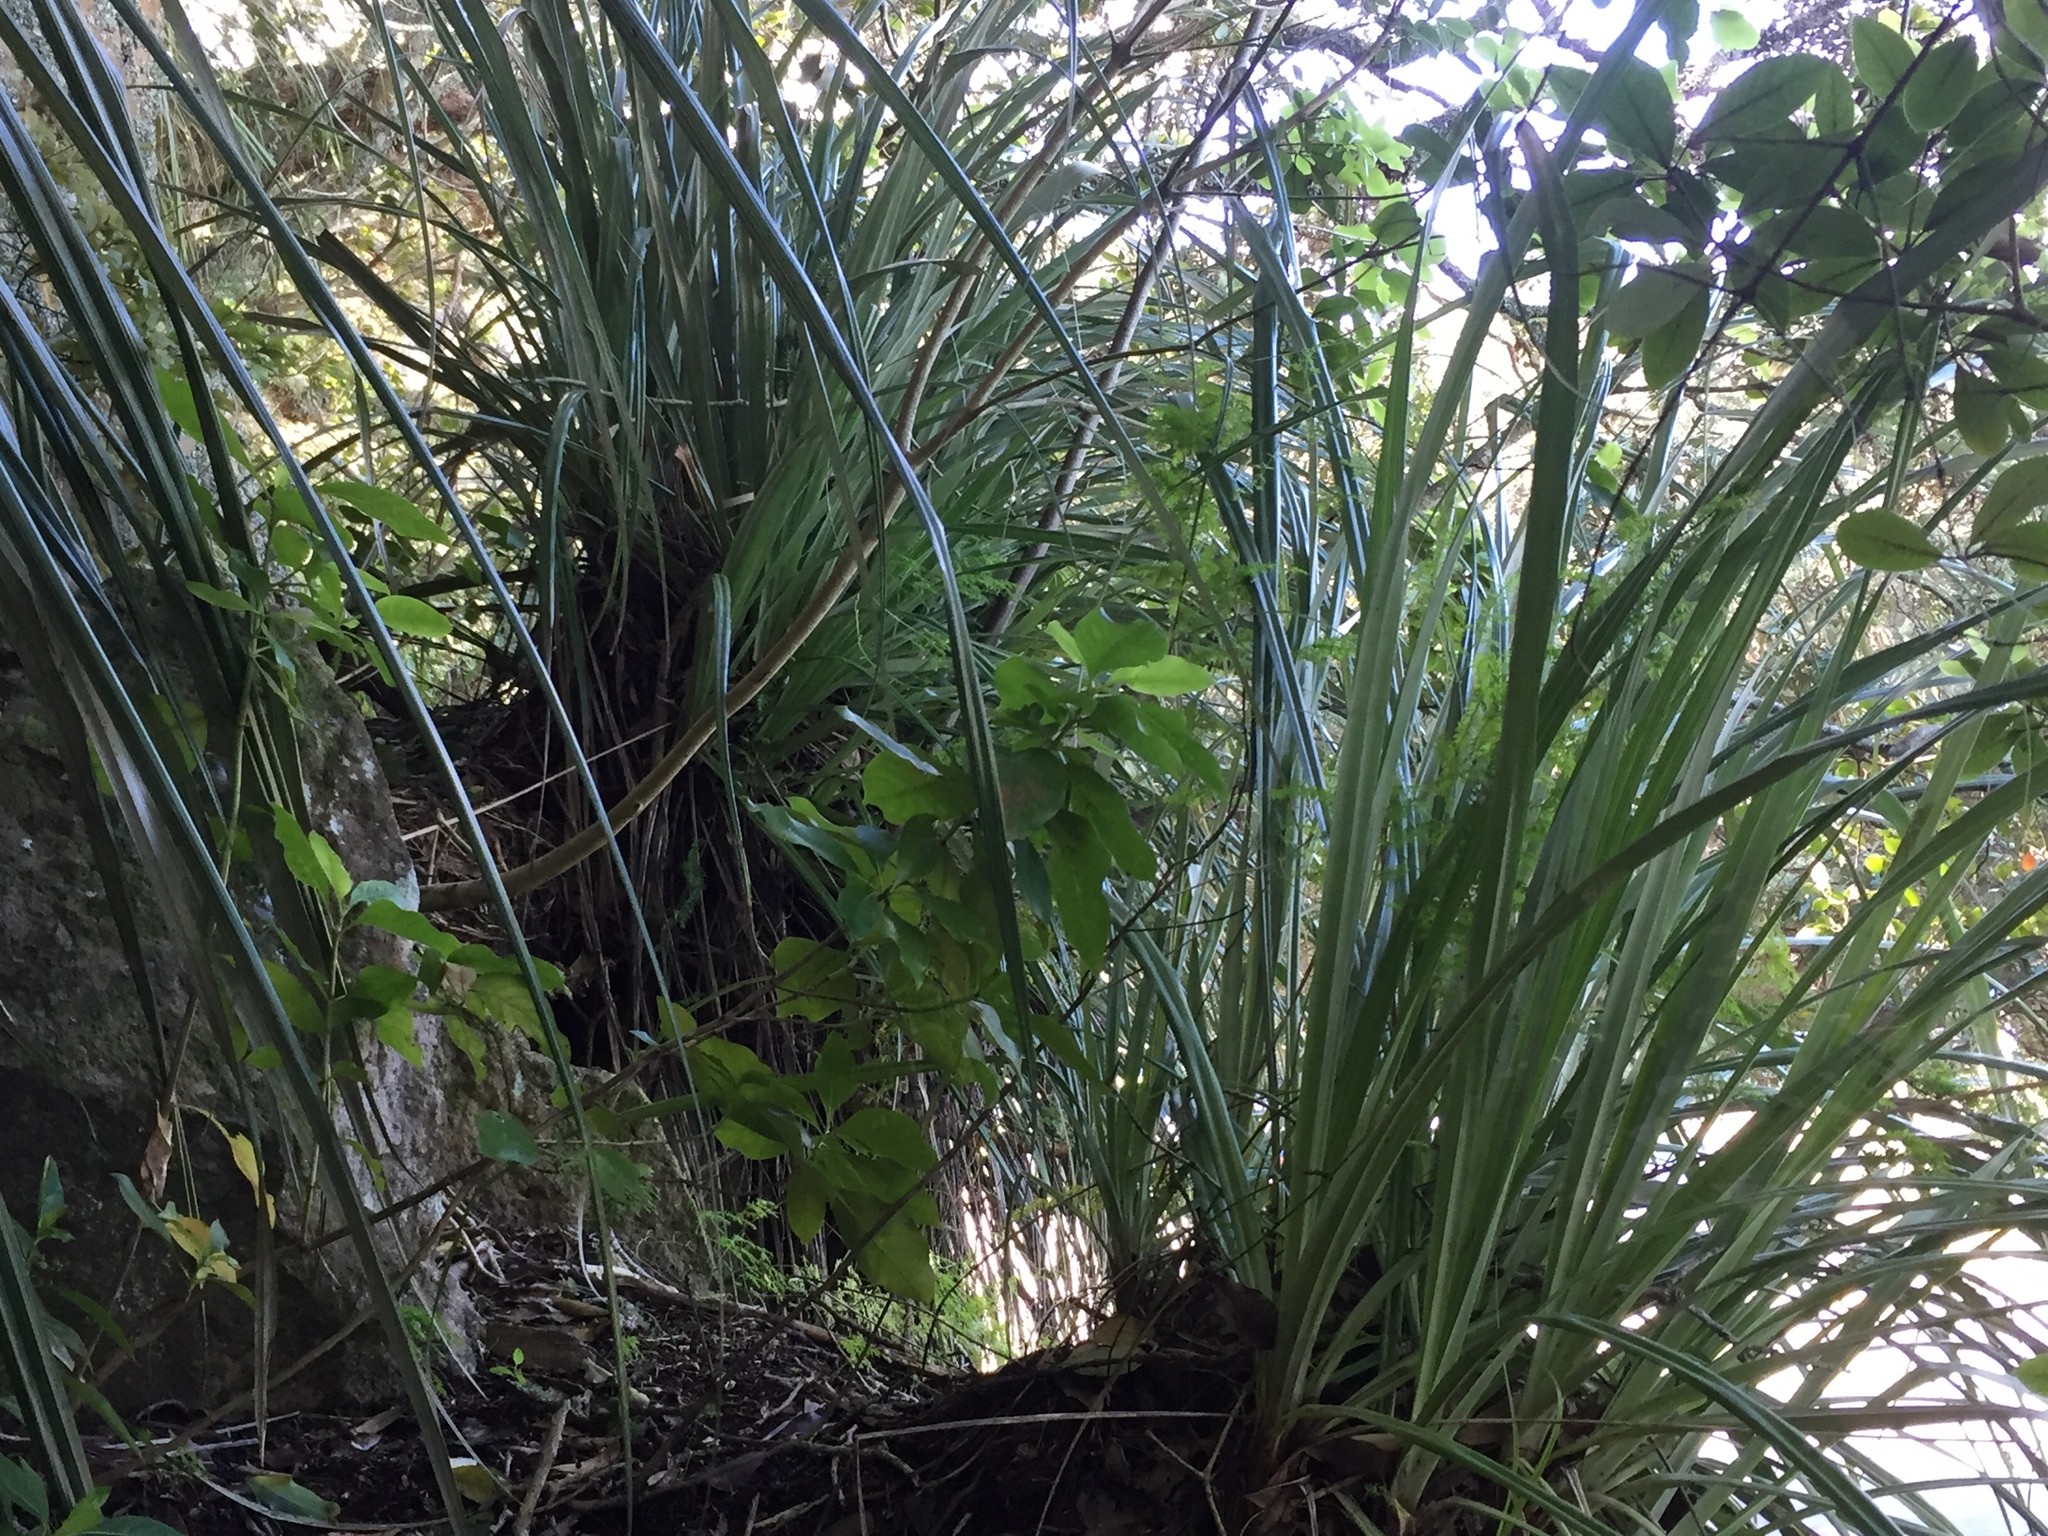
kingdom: Plantae
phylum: Tracheophyta
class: Liliopsida
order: Asparagales
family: Asteliaceae
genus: Astelia
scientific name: Astelia banksii
